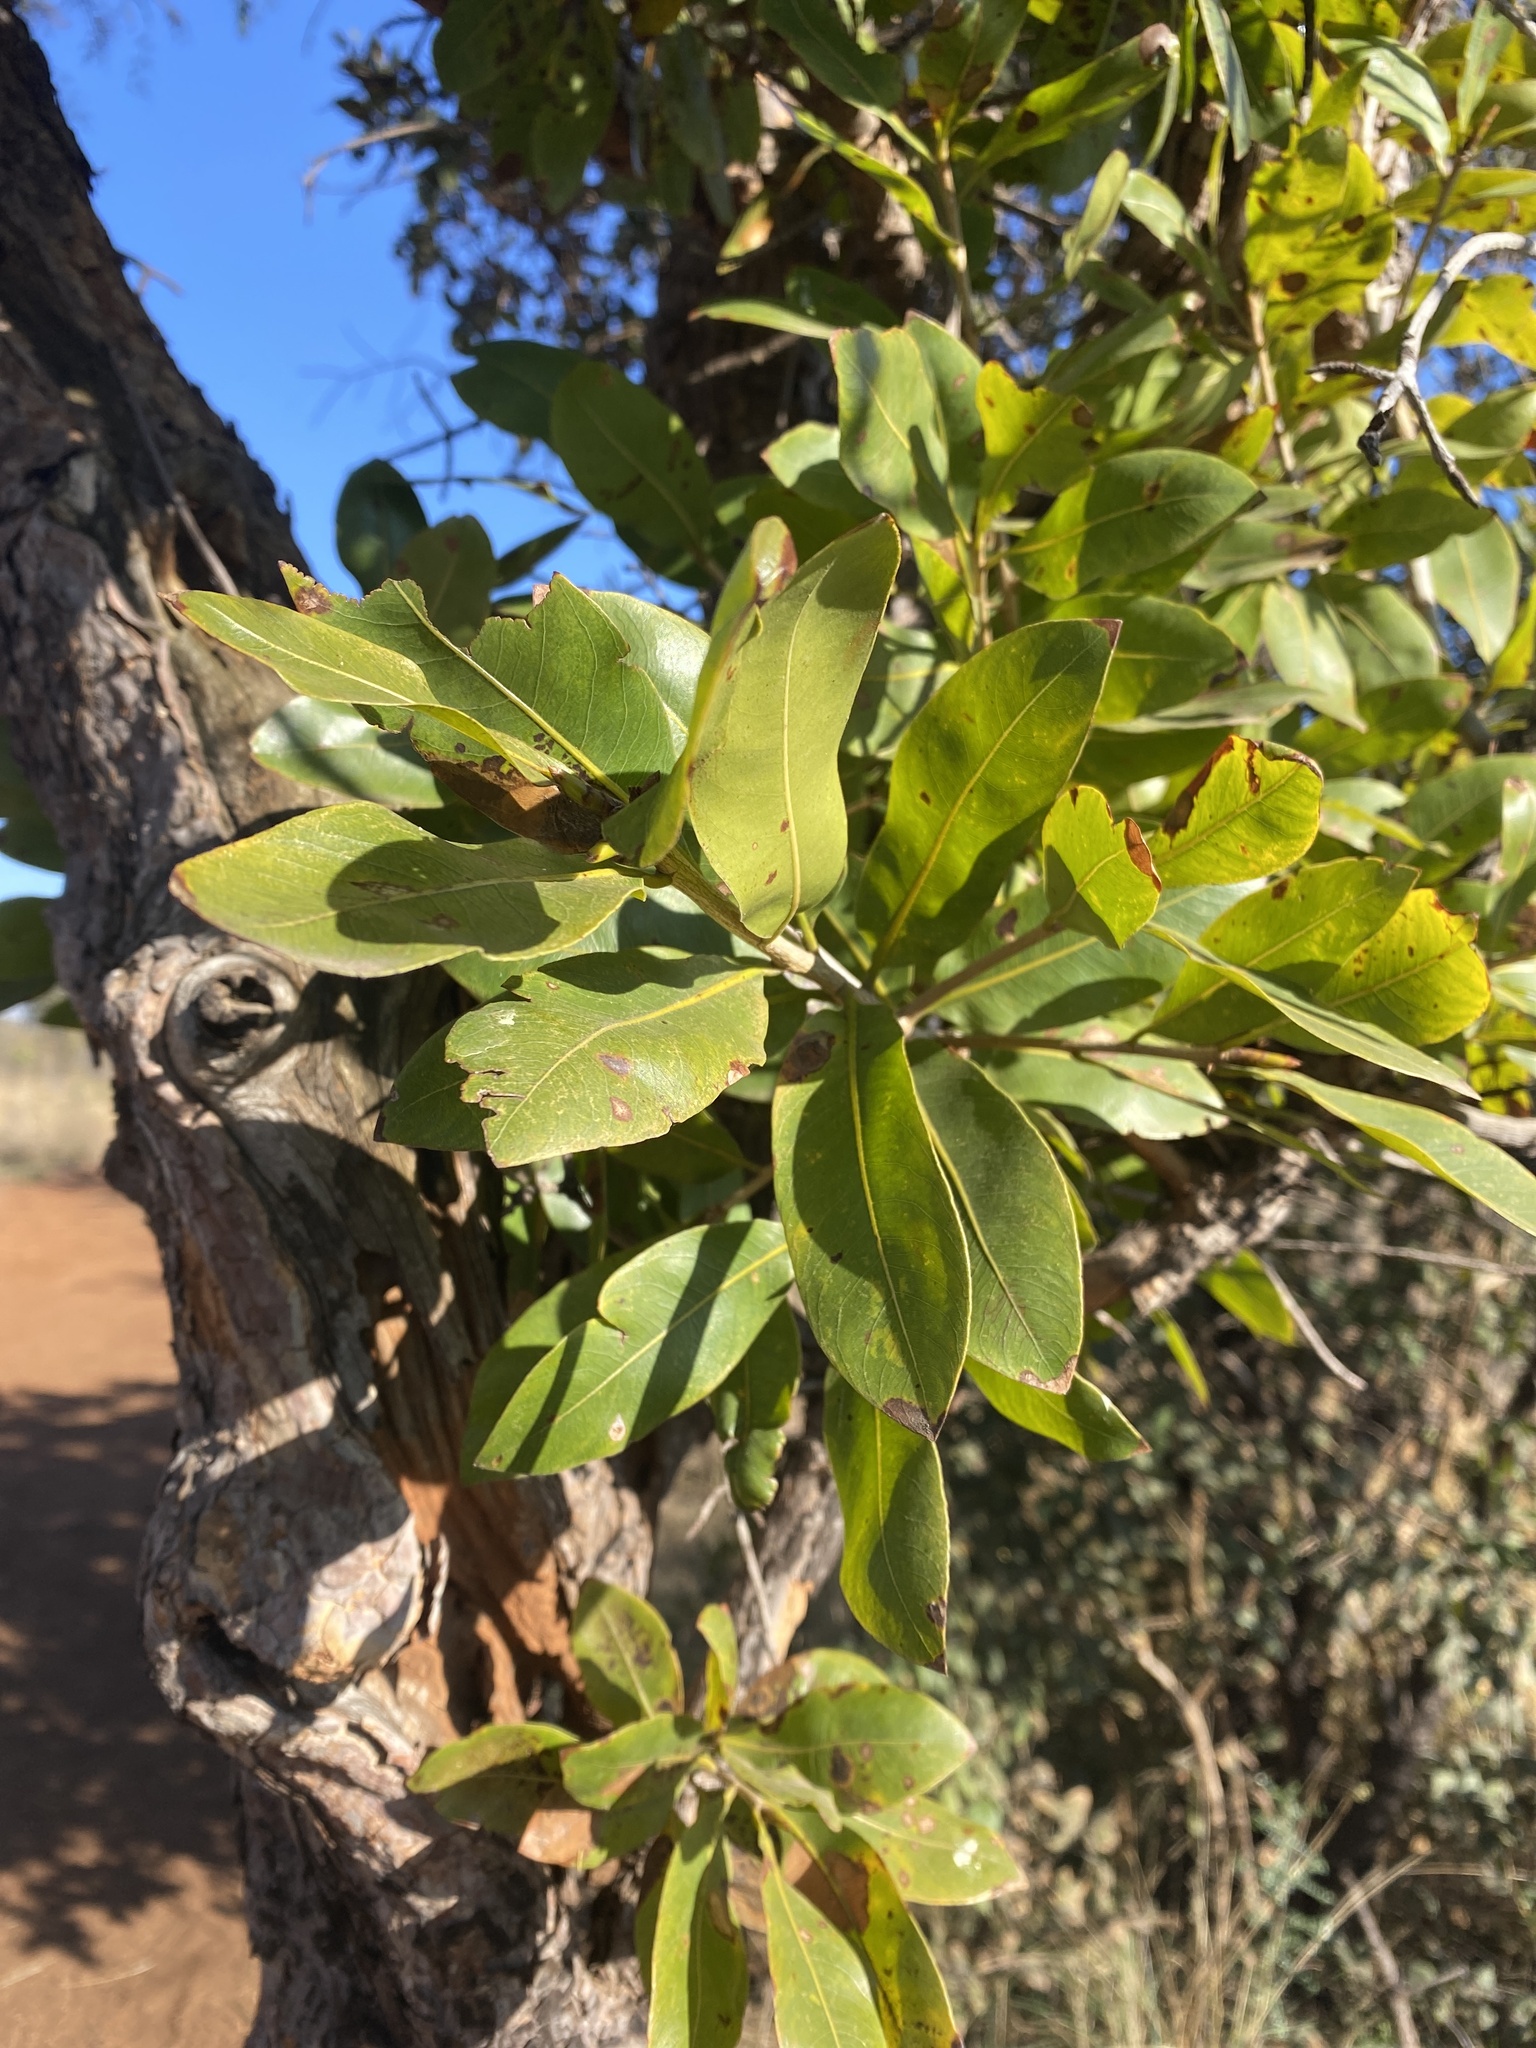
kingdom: Plantae
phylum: Tracheophyta
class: Magnoliopsida
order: Malpighiales
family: Ochnaceae
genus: Ochna
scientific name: Ochna pulchra
